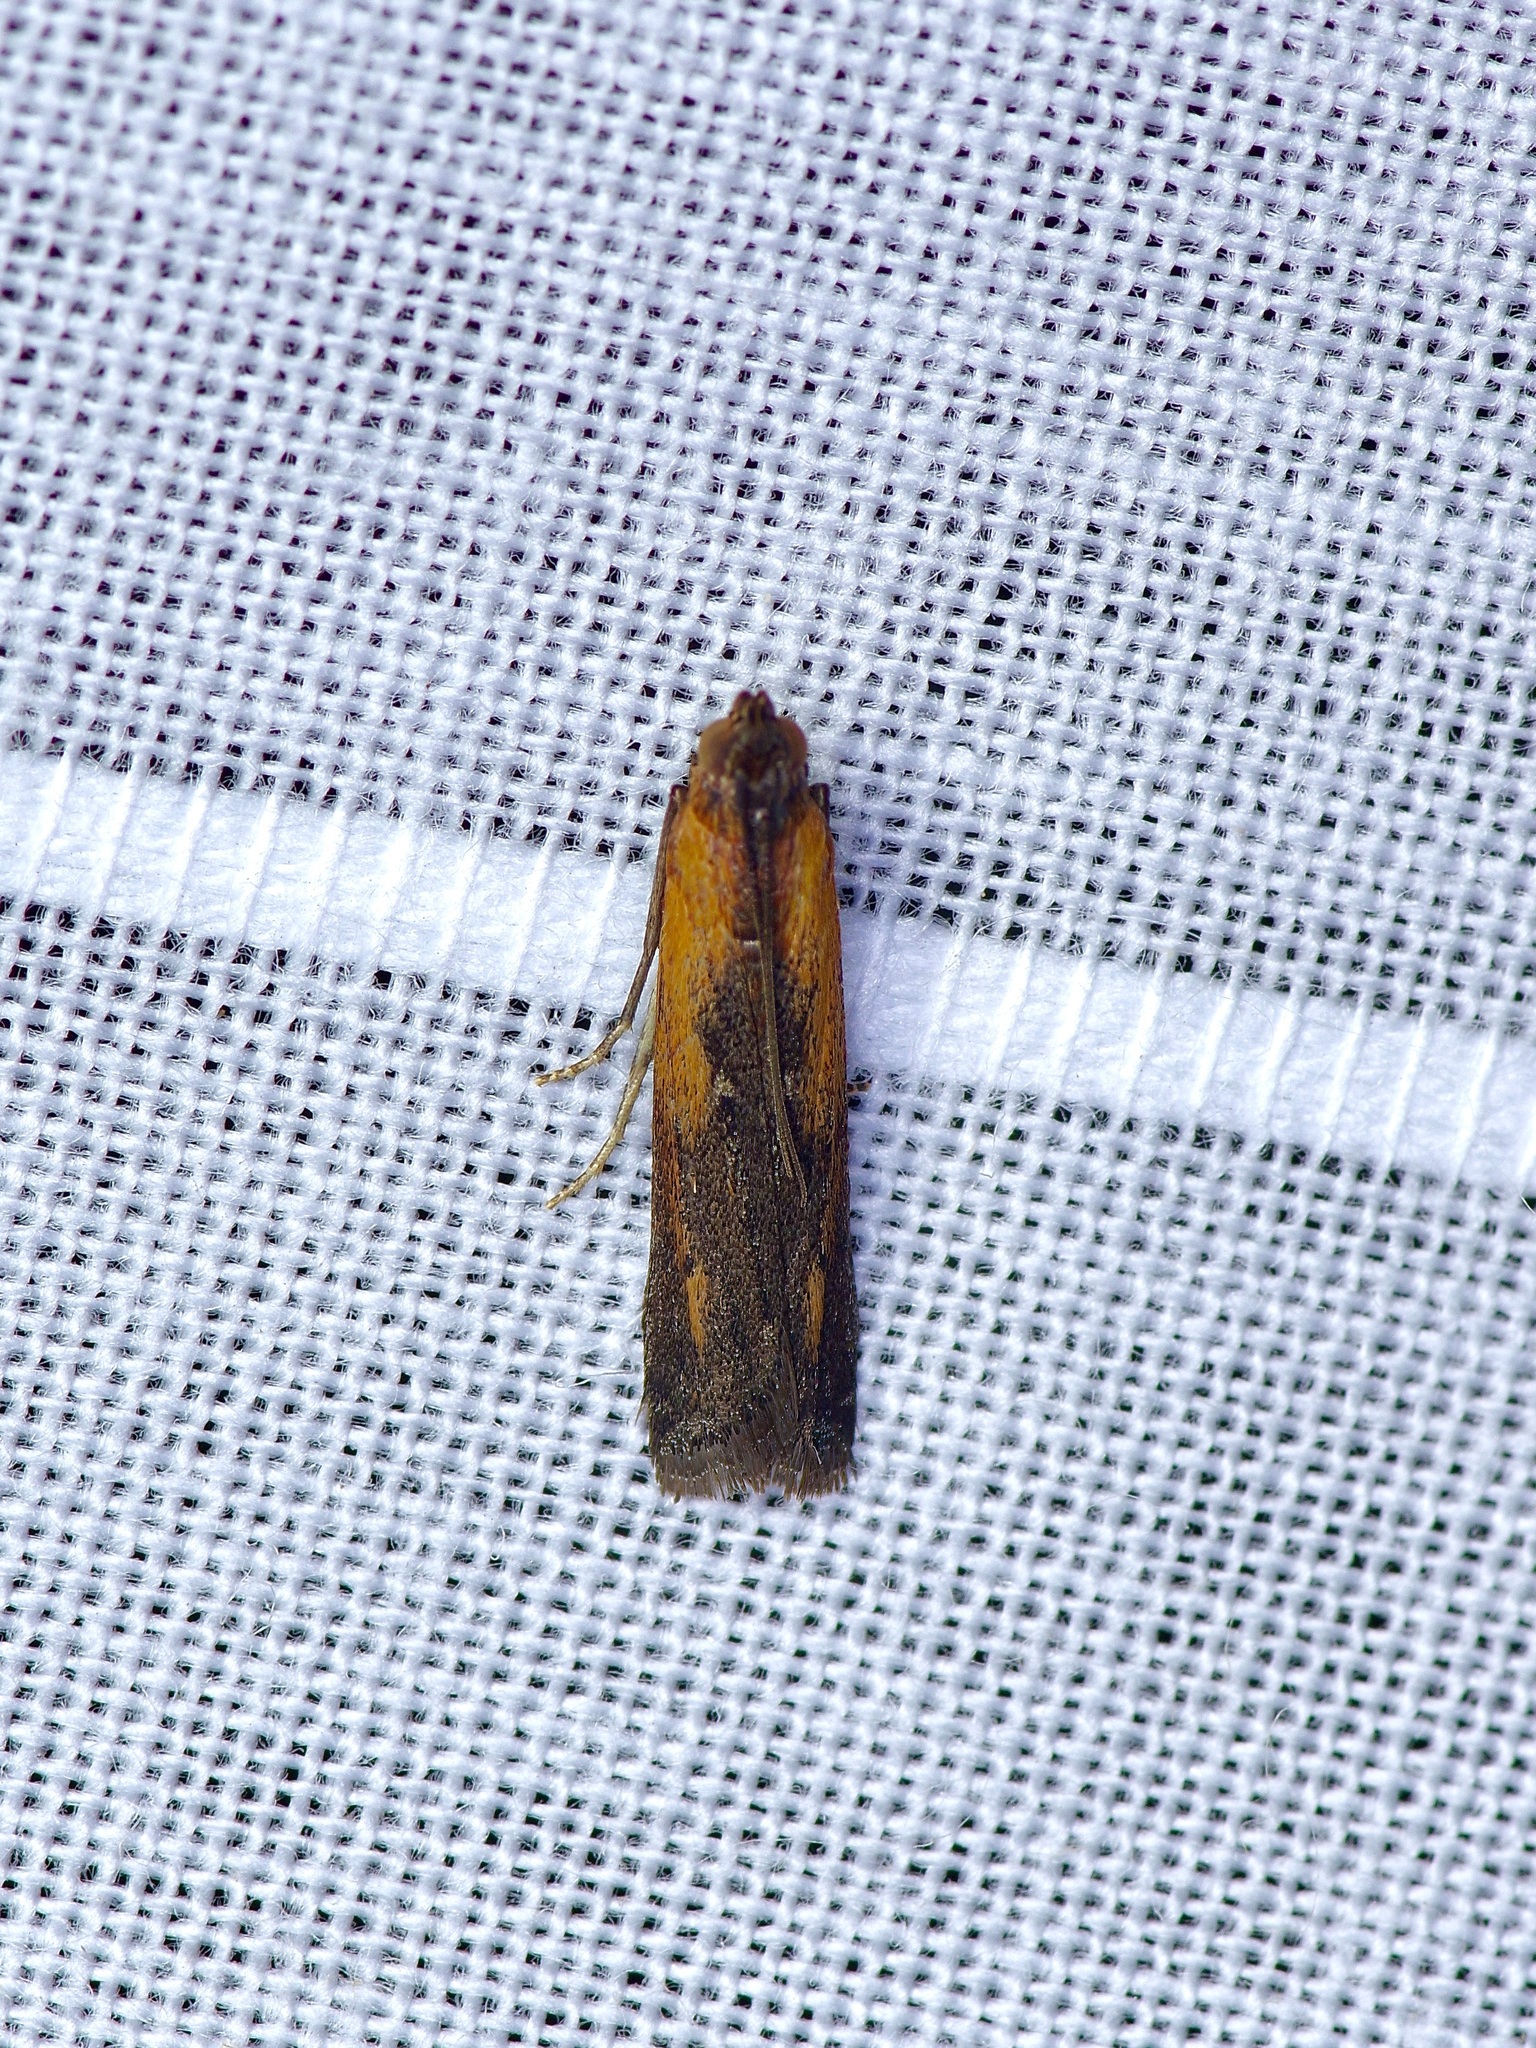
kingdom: Animalia
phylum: Arthropoda
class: Insecta
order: Lepidoptera
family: Pyralidae
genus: Elasmopalpus
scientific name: Elasmopalpus lignosella
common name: Lesser cornstalk borer
